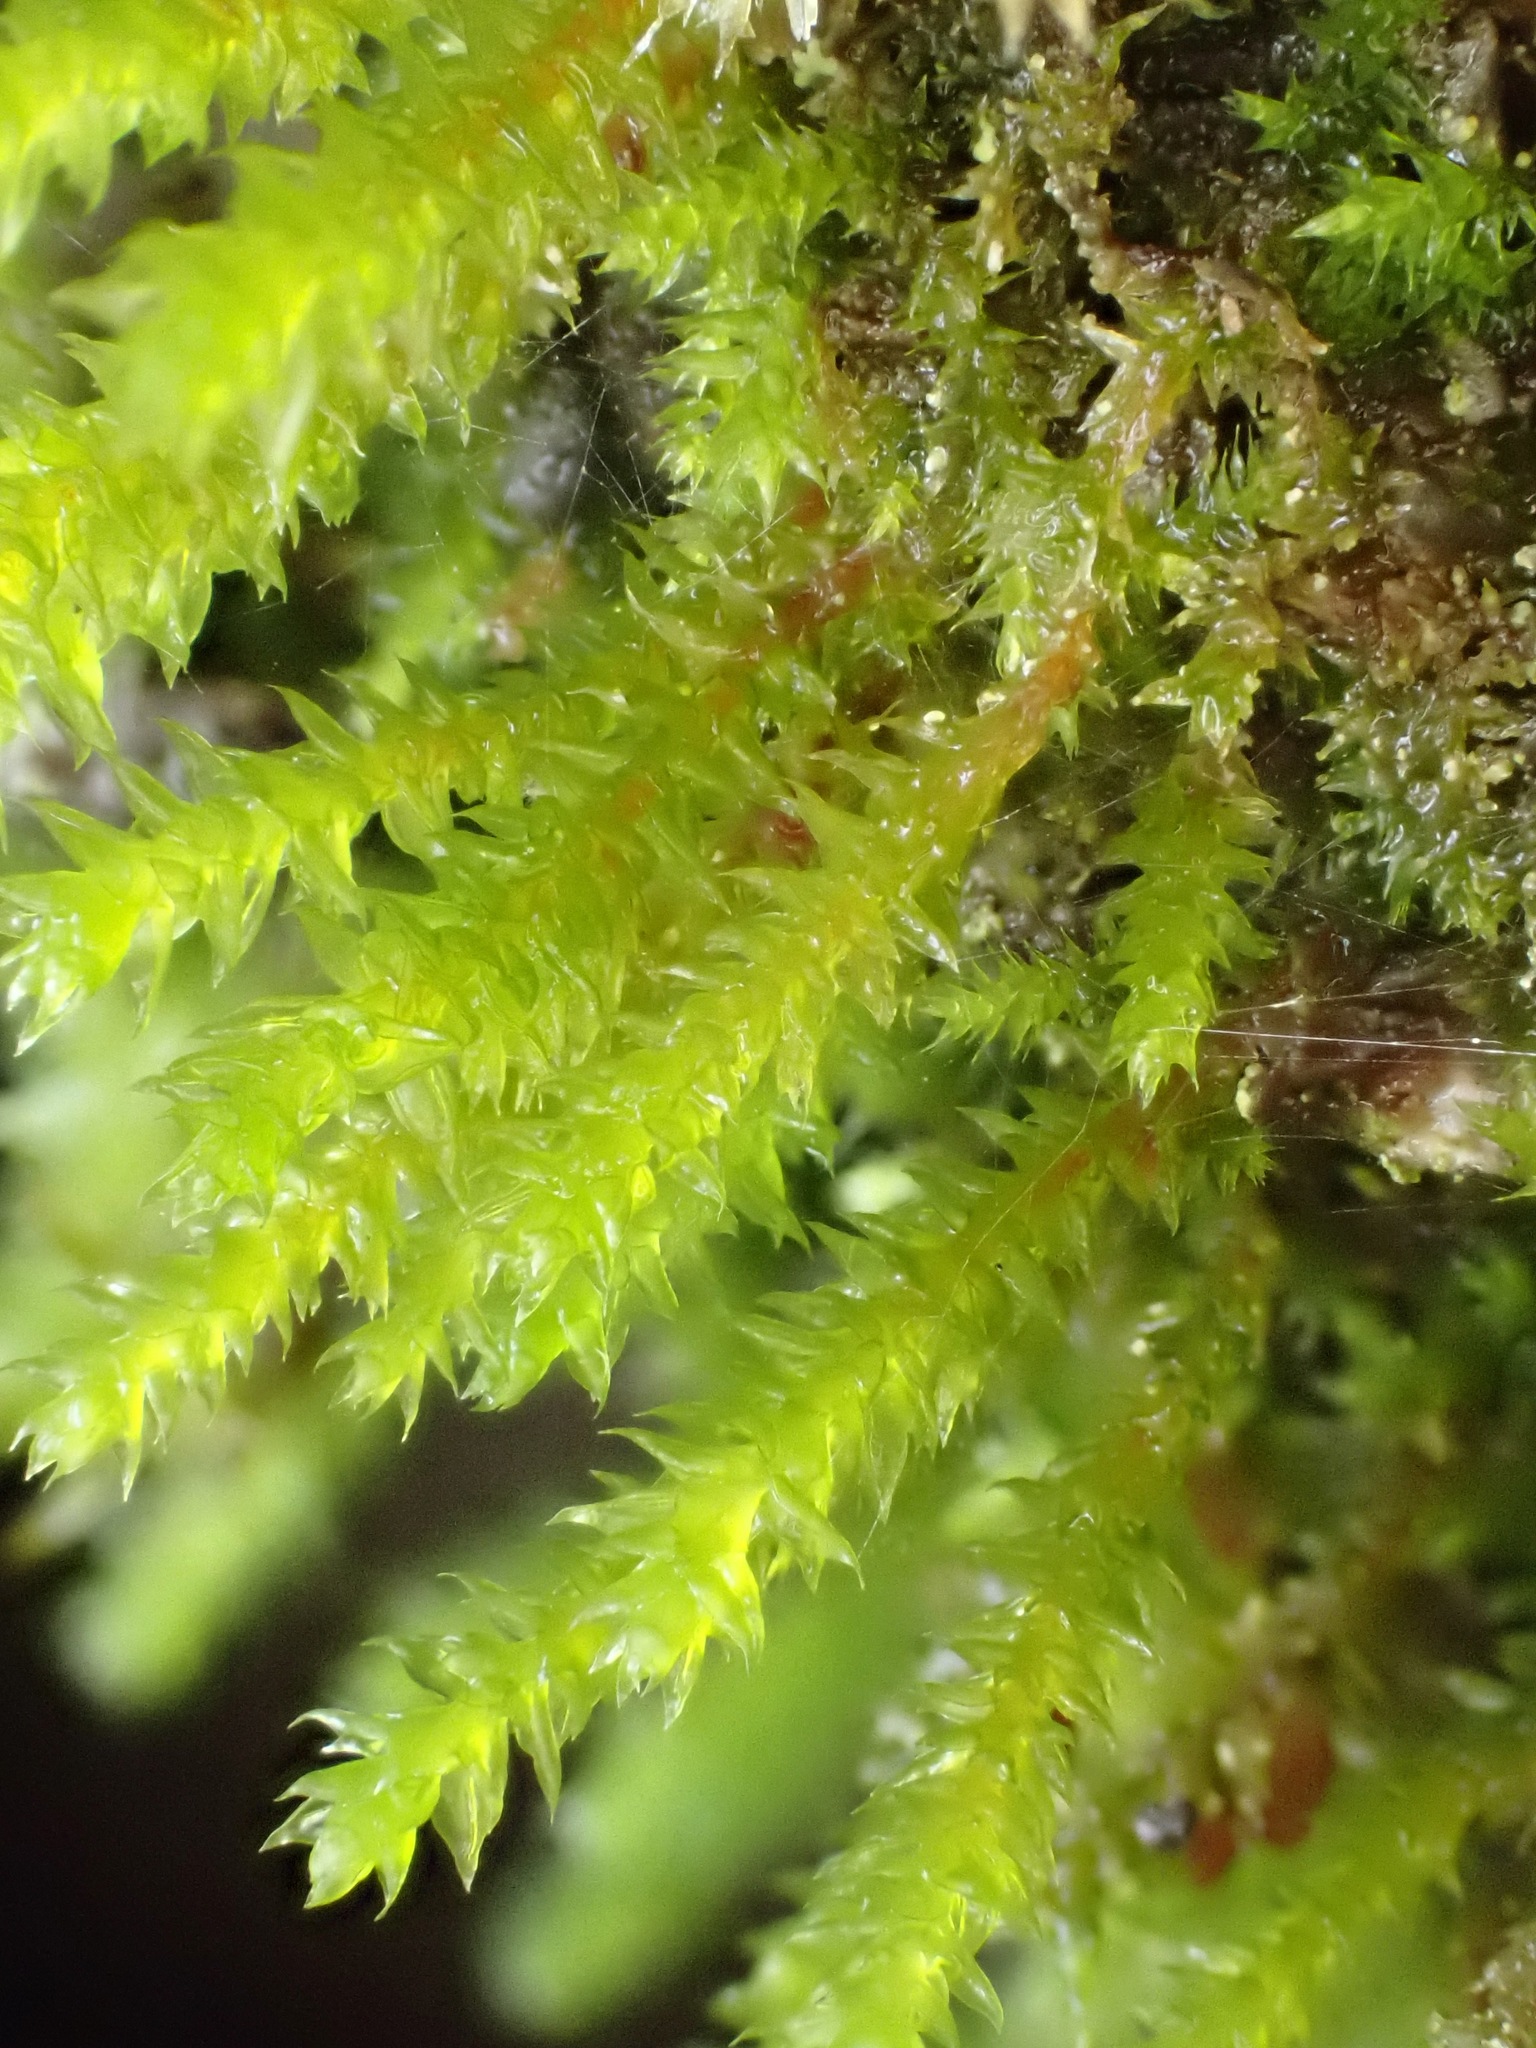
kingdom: Plantae
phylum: Bryophyta
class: Bryopsida
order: Hypnales
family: Cryphaeaceae
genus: Cryphaea
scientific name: Cryphaea heteromalla
